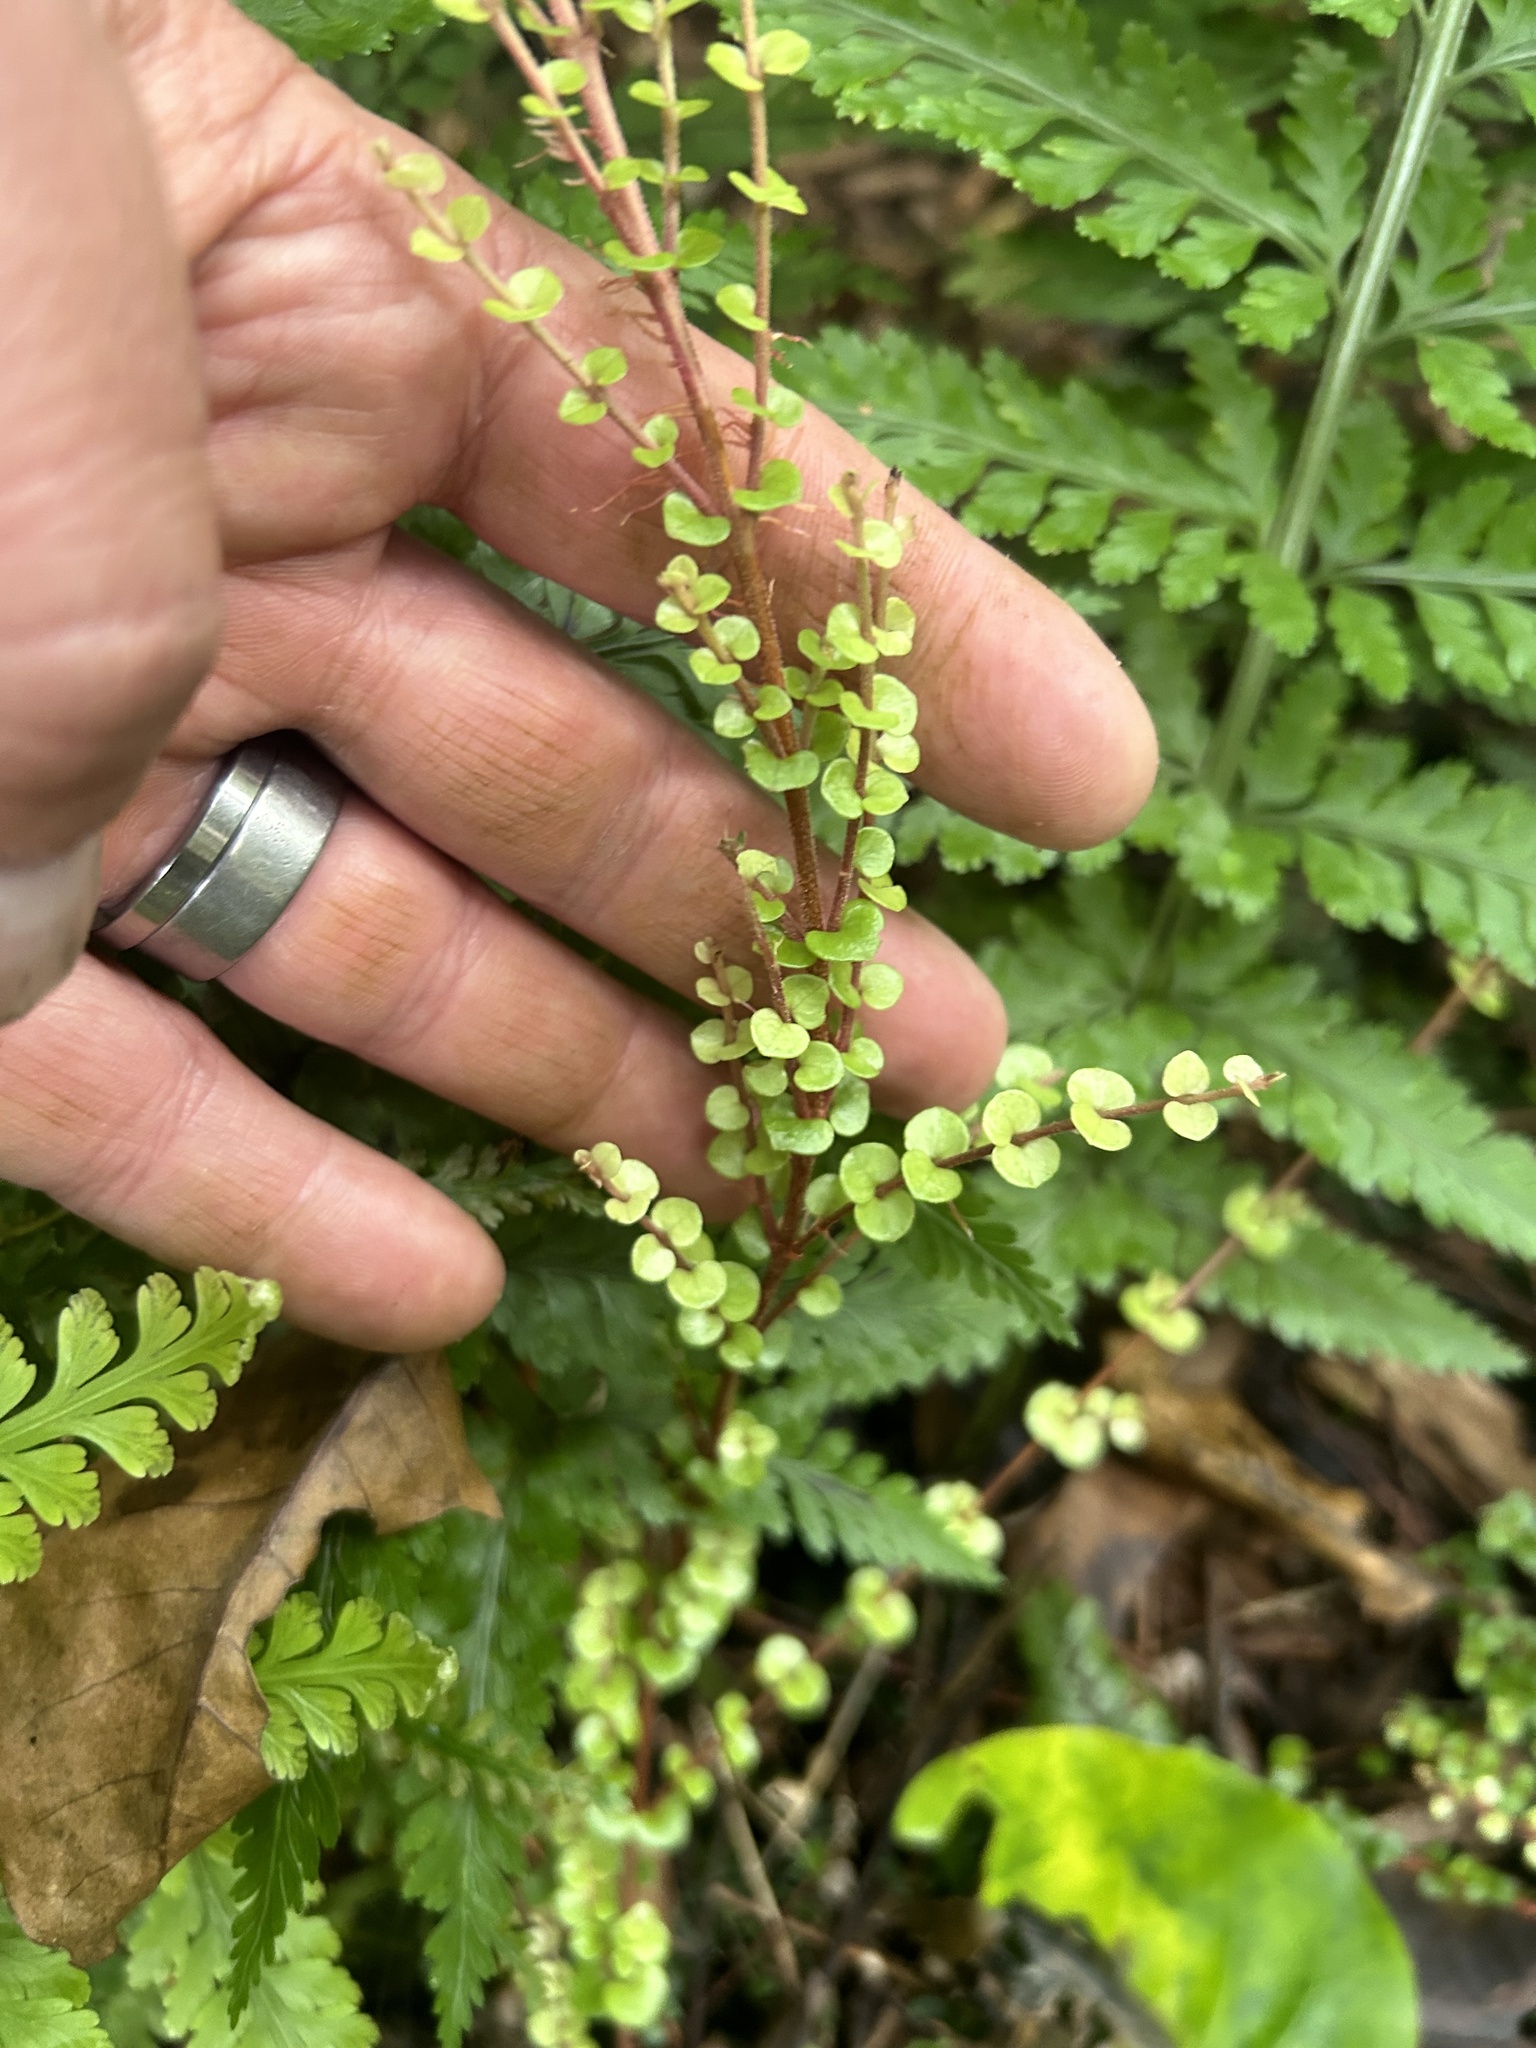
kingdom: Plantae
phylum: Tracheophyta
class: Magnoliopsida
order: Myrtales
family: Myrtaceae
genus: Metrosideros
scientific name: Metrosideros perforata
